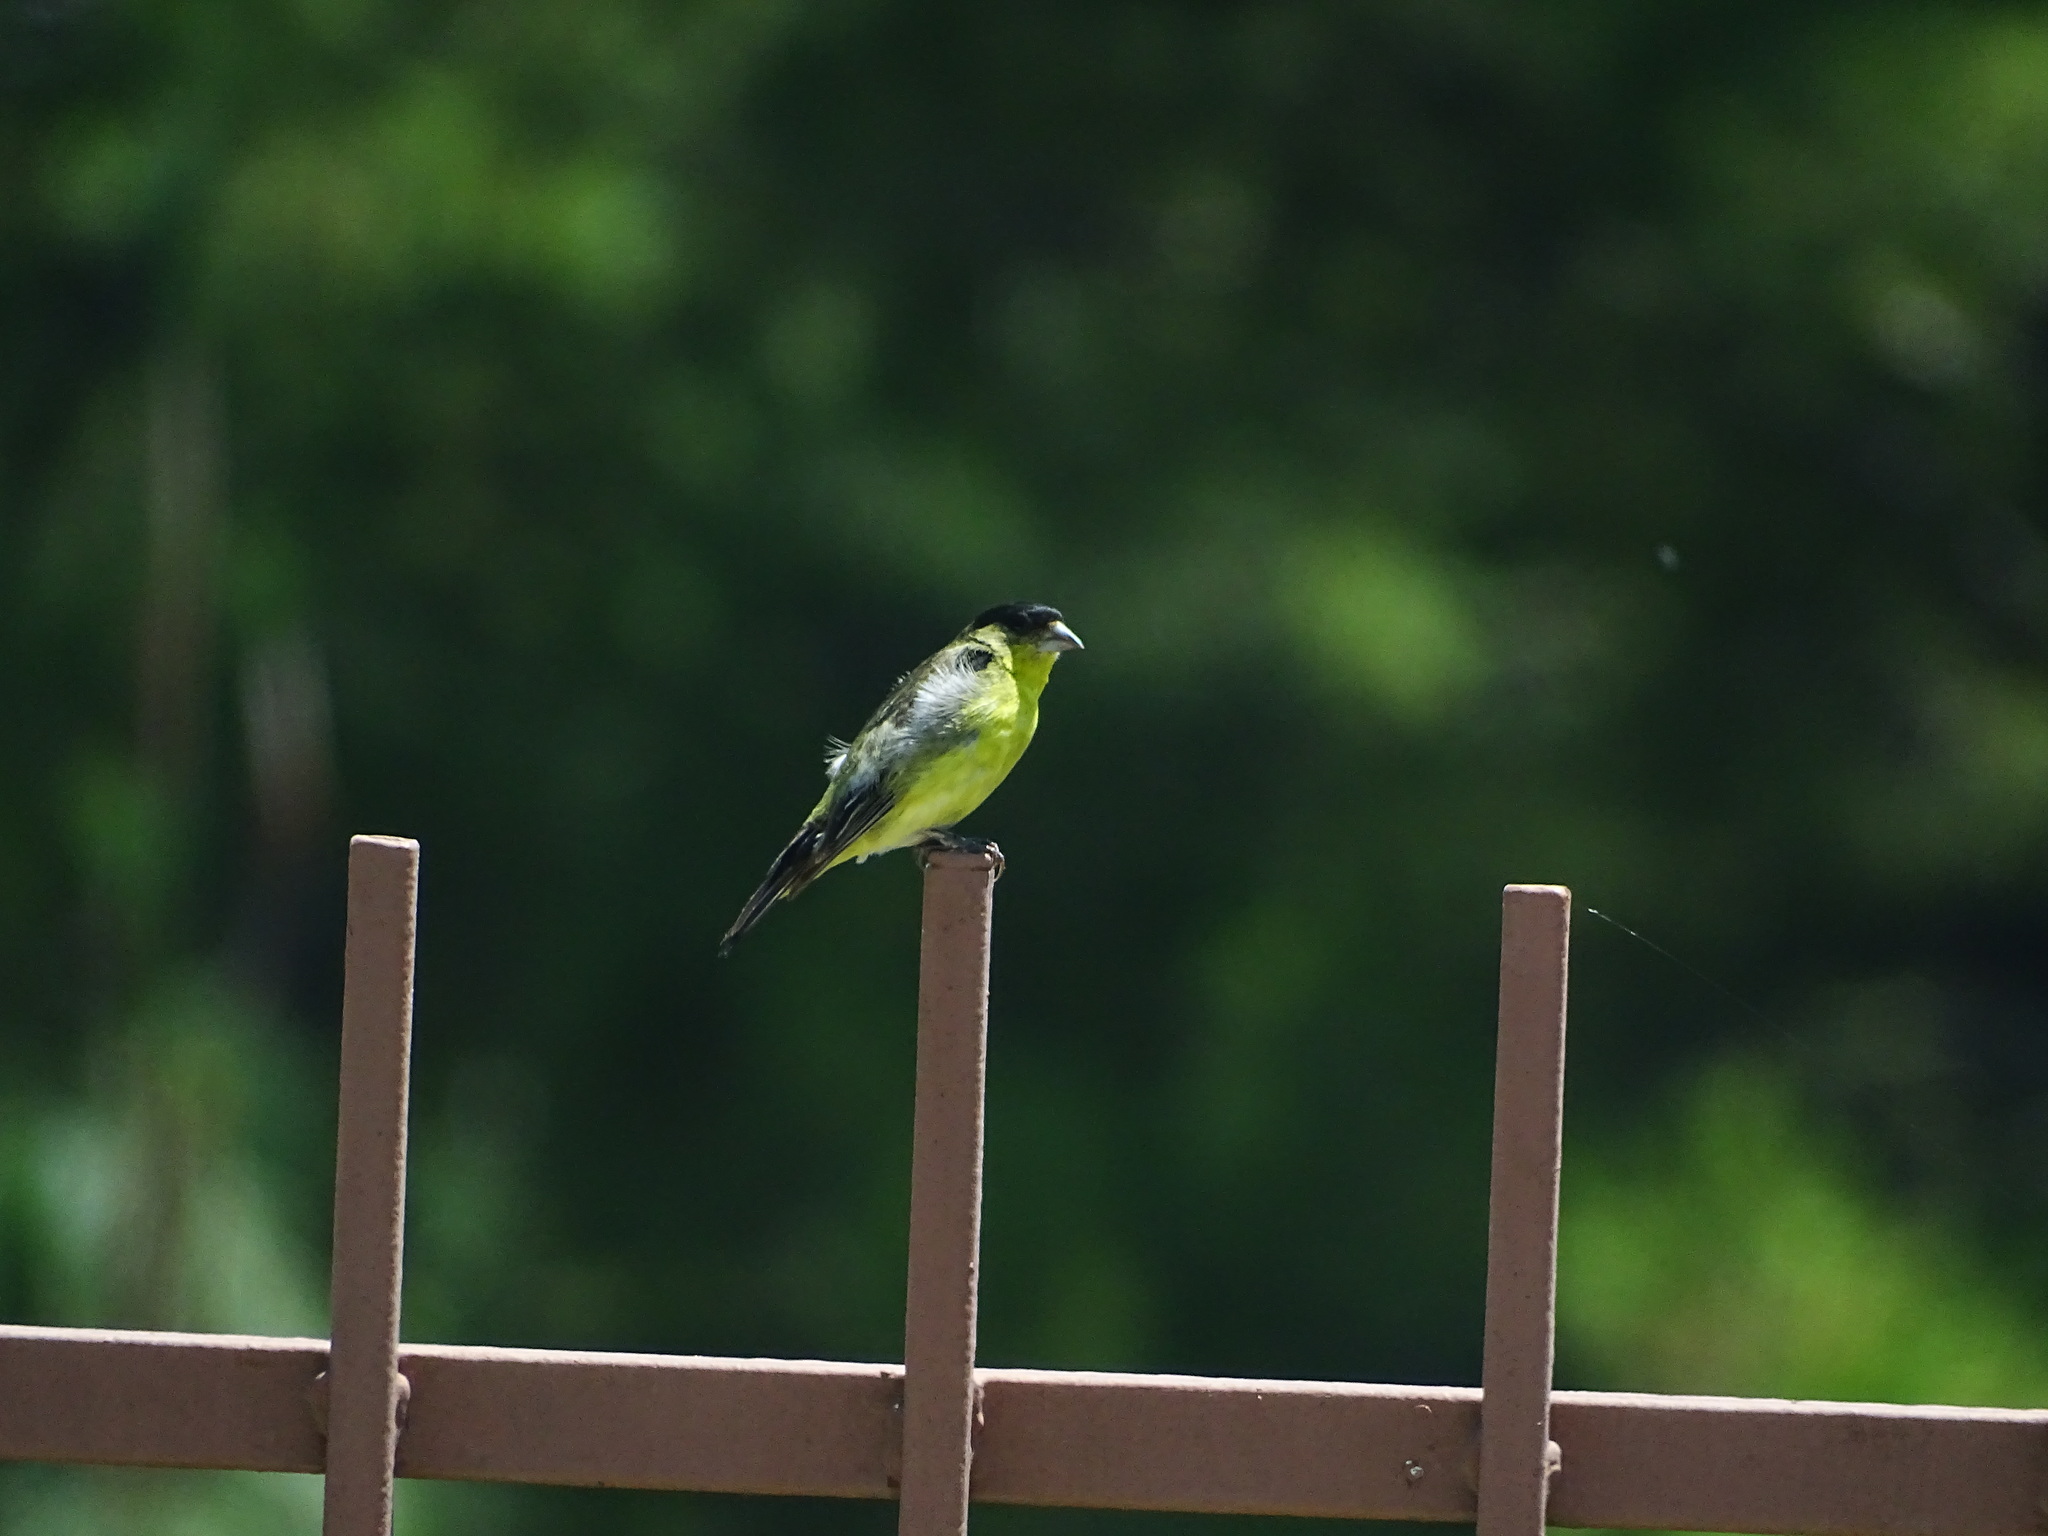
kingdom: Animalia
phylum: Chordata
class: Aves
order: Passeriformes
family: Fringillidae
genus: Spinus
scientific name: Spinus psaltria
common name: Lesser goldfinch
